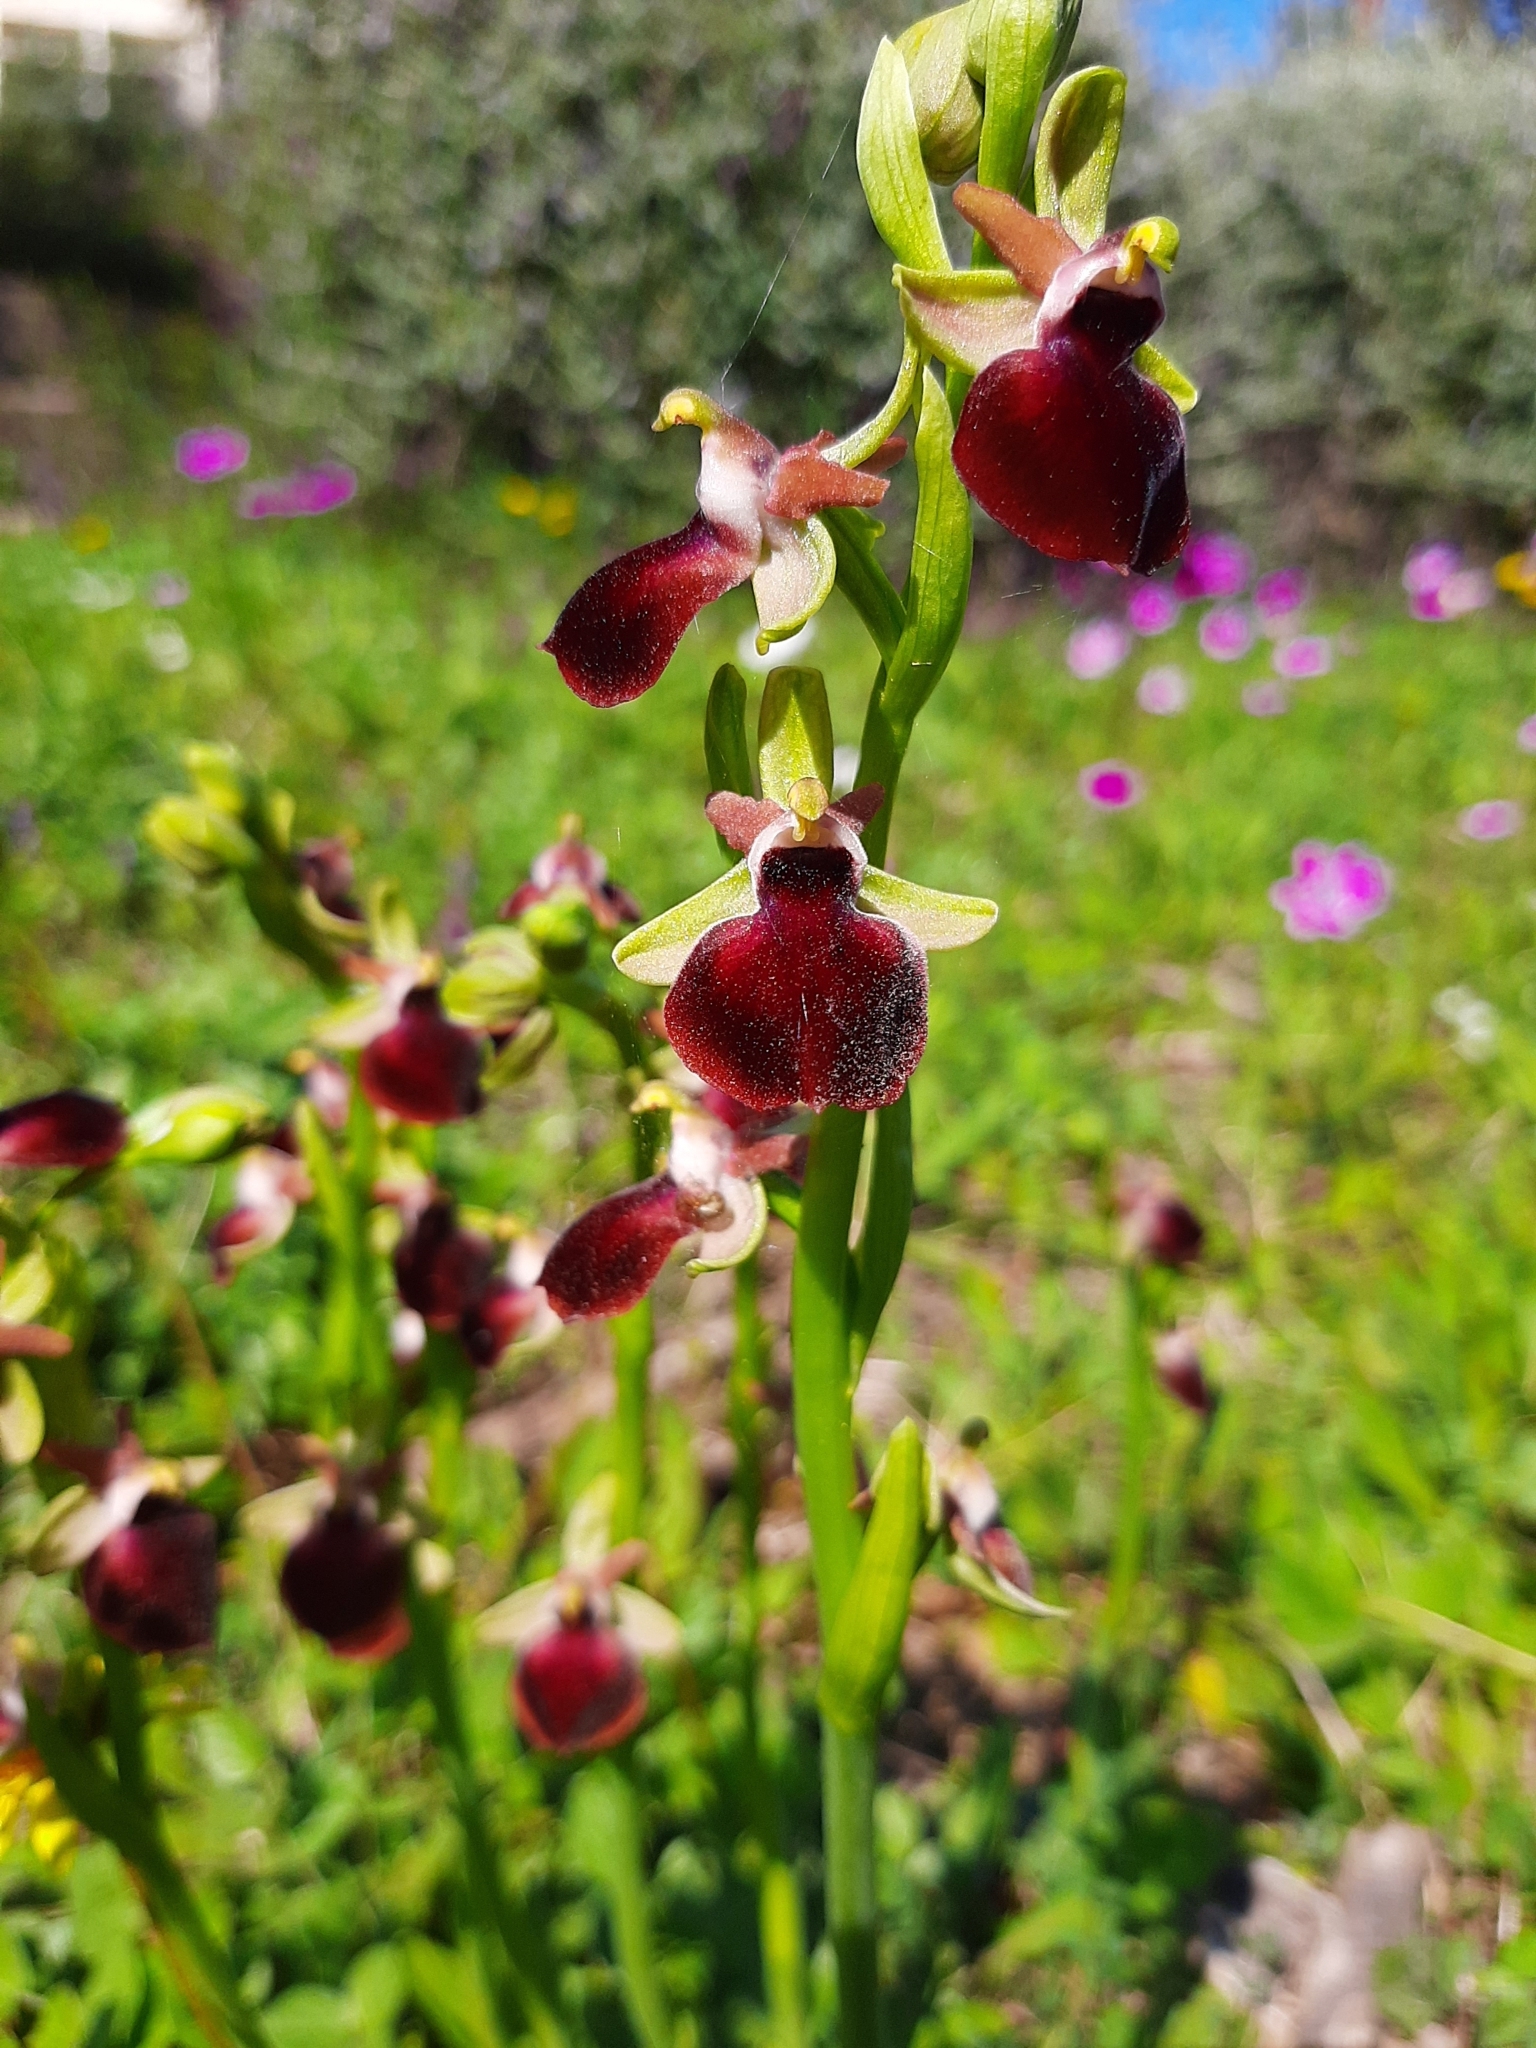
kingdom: Plantae
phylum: Tracheophyta
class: Liliopsida
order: Asparagales
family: Orchidaceae
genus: Ophrys
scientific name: Ophrys sphegodes
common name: Early spider-orchid
